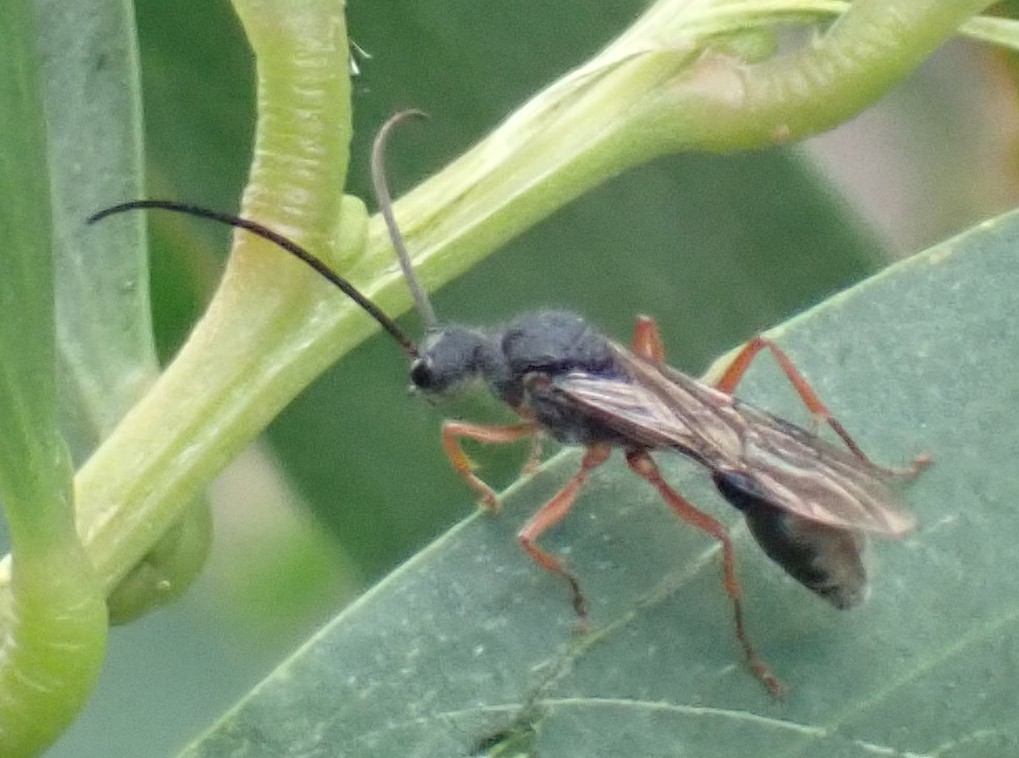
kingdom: Animalia
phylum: Arthropoda
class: Insecta
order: Hymenoptera
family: Formicidae
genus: Myrmecia
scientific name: Myrmecia fulvipes
